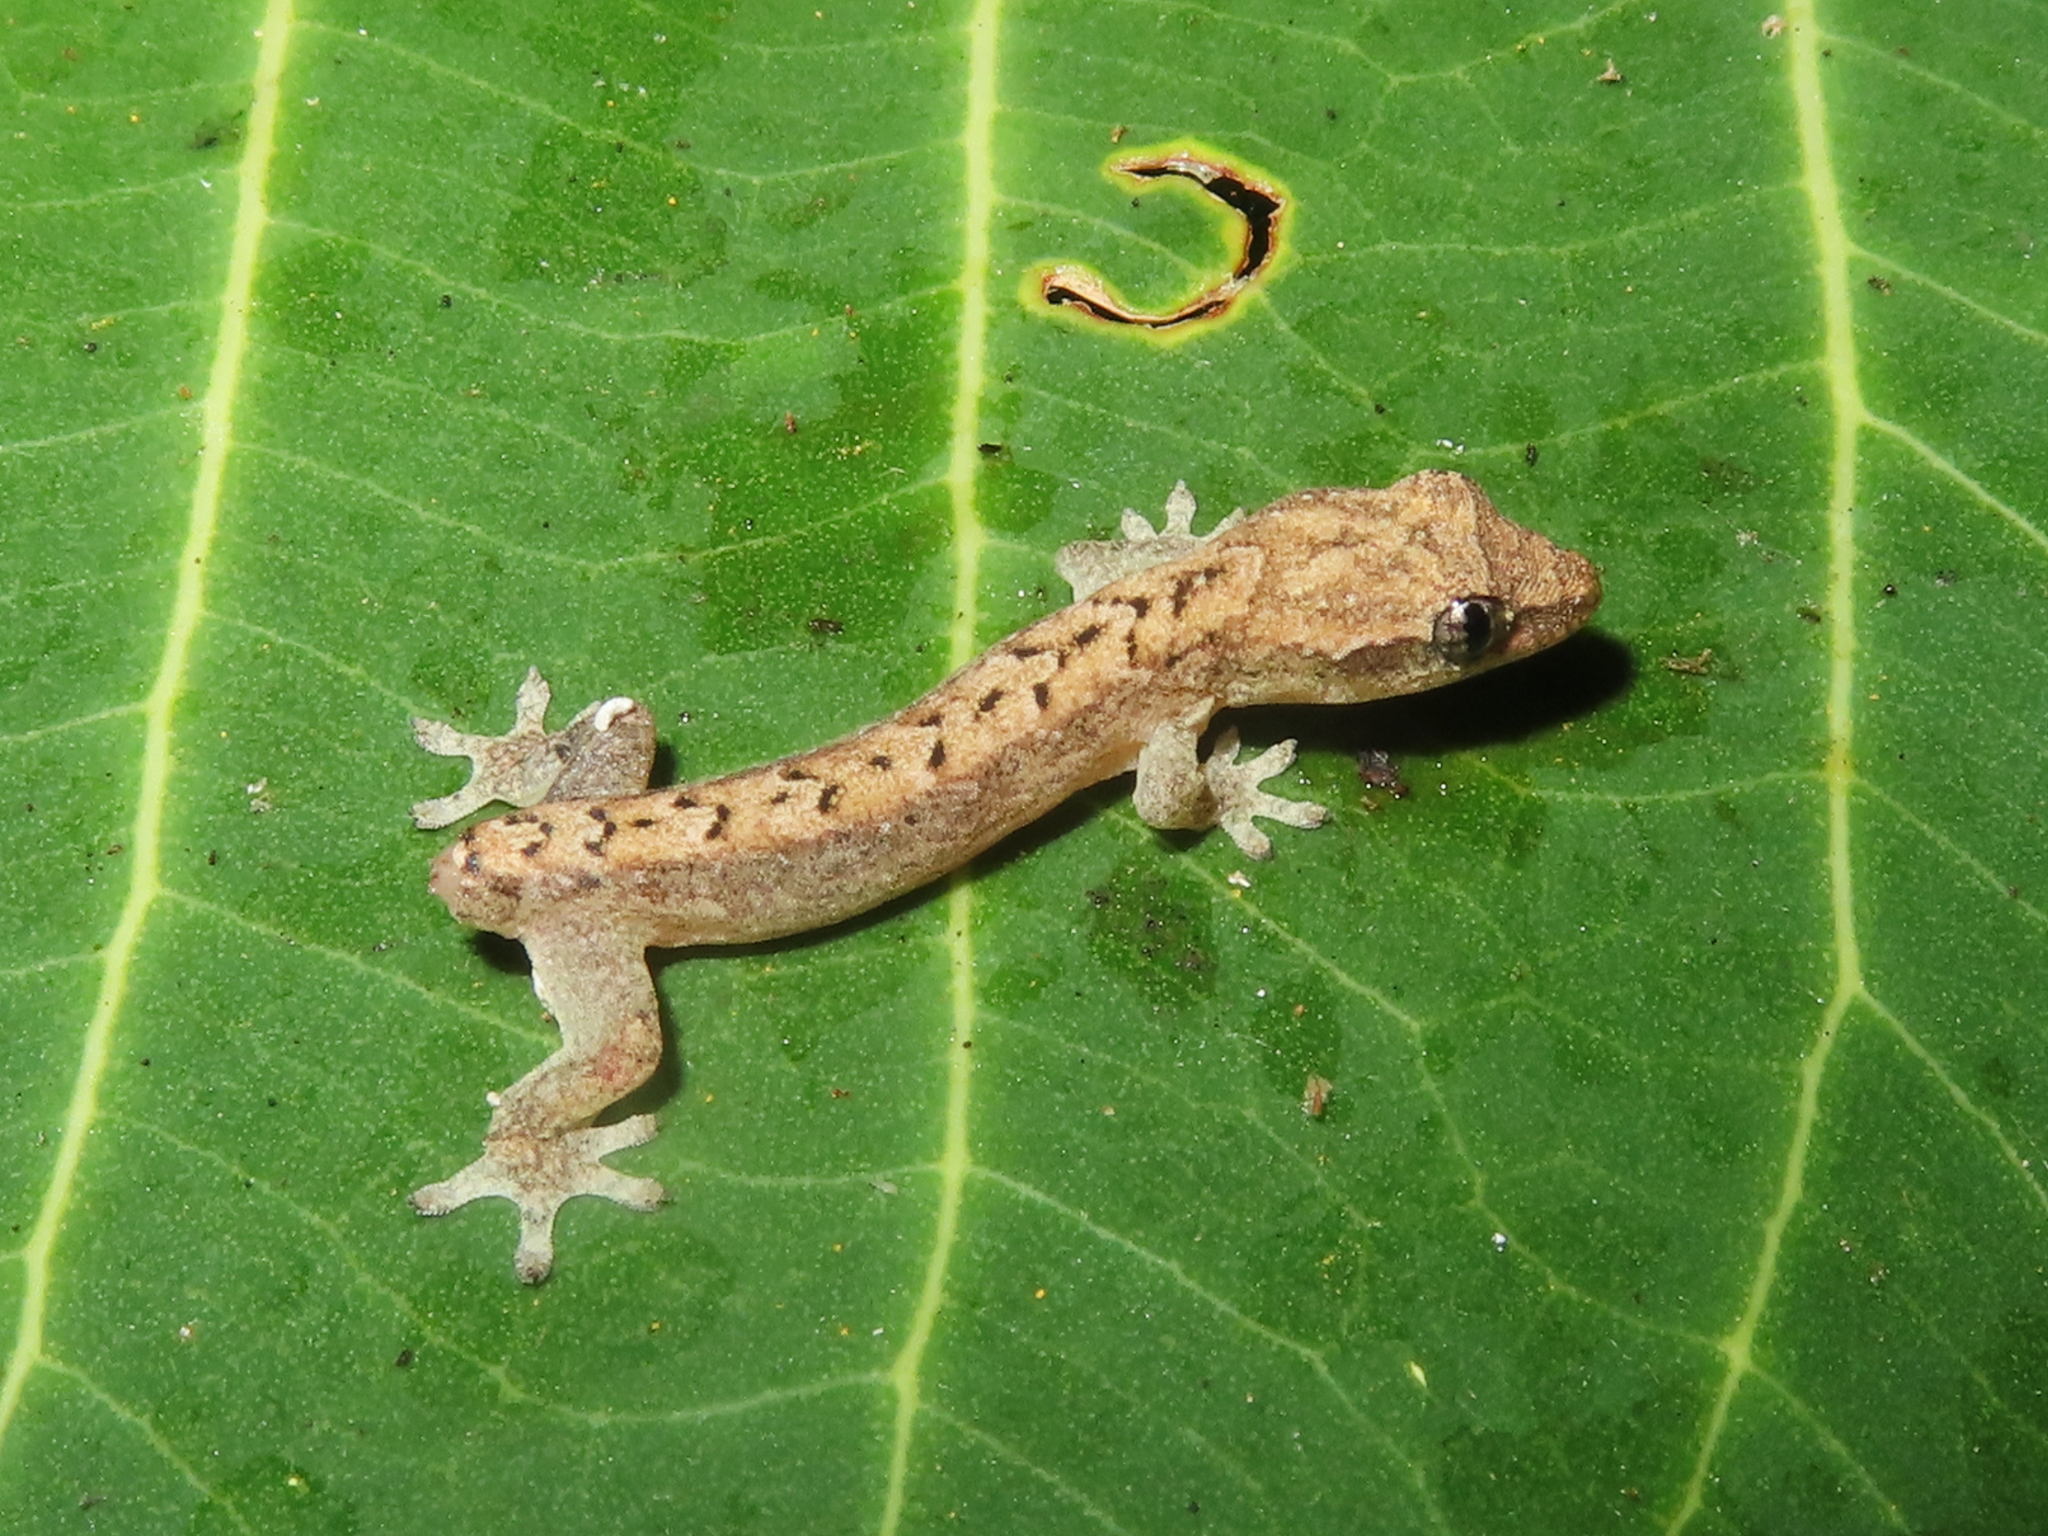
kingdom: Animalia
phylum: Chordata
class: Squamata
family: Gekkonidae
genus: Lepidodactylus
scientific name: Lepidodactylus lugubris
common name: Mourning gecko
